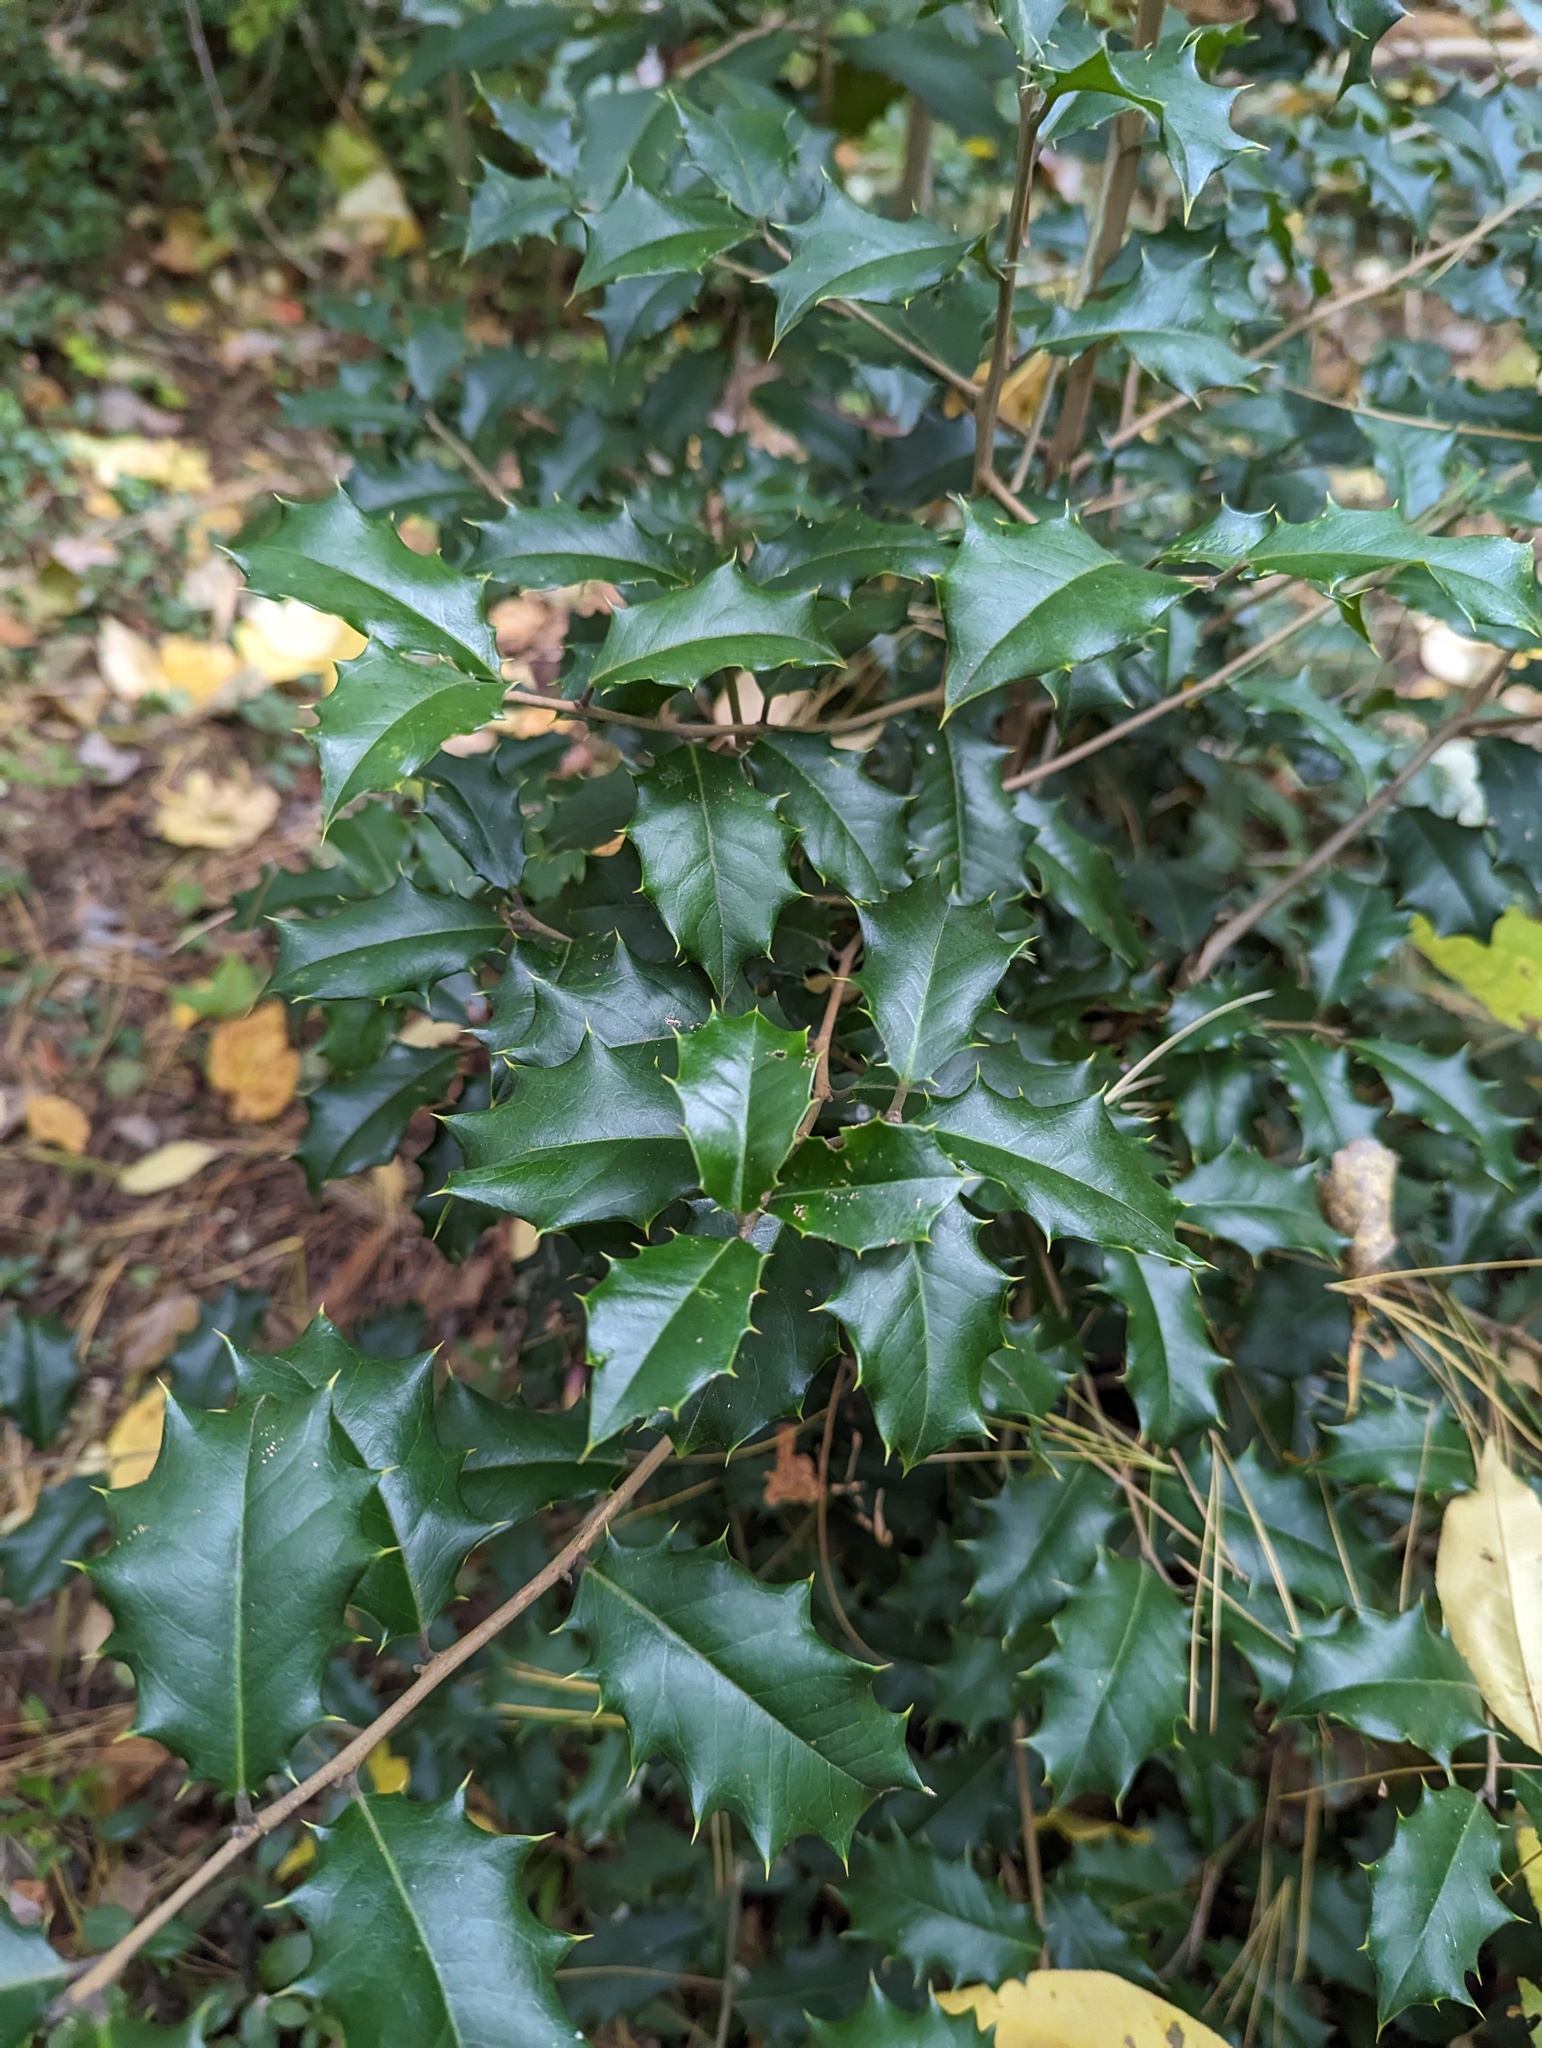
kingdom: Plantae
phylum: Tracheophyta
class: Magnoliopsida
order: Aquifoliales
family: Aquifoliaceae
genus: Ilex
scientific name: Ilex opaca
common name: American holly
